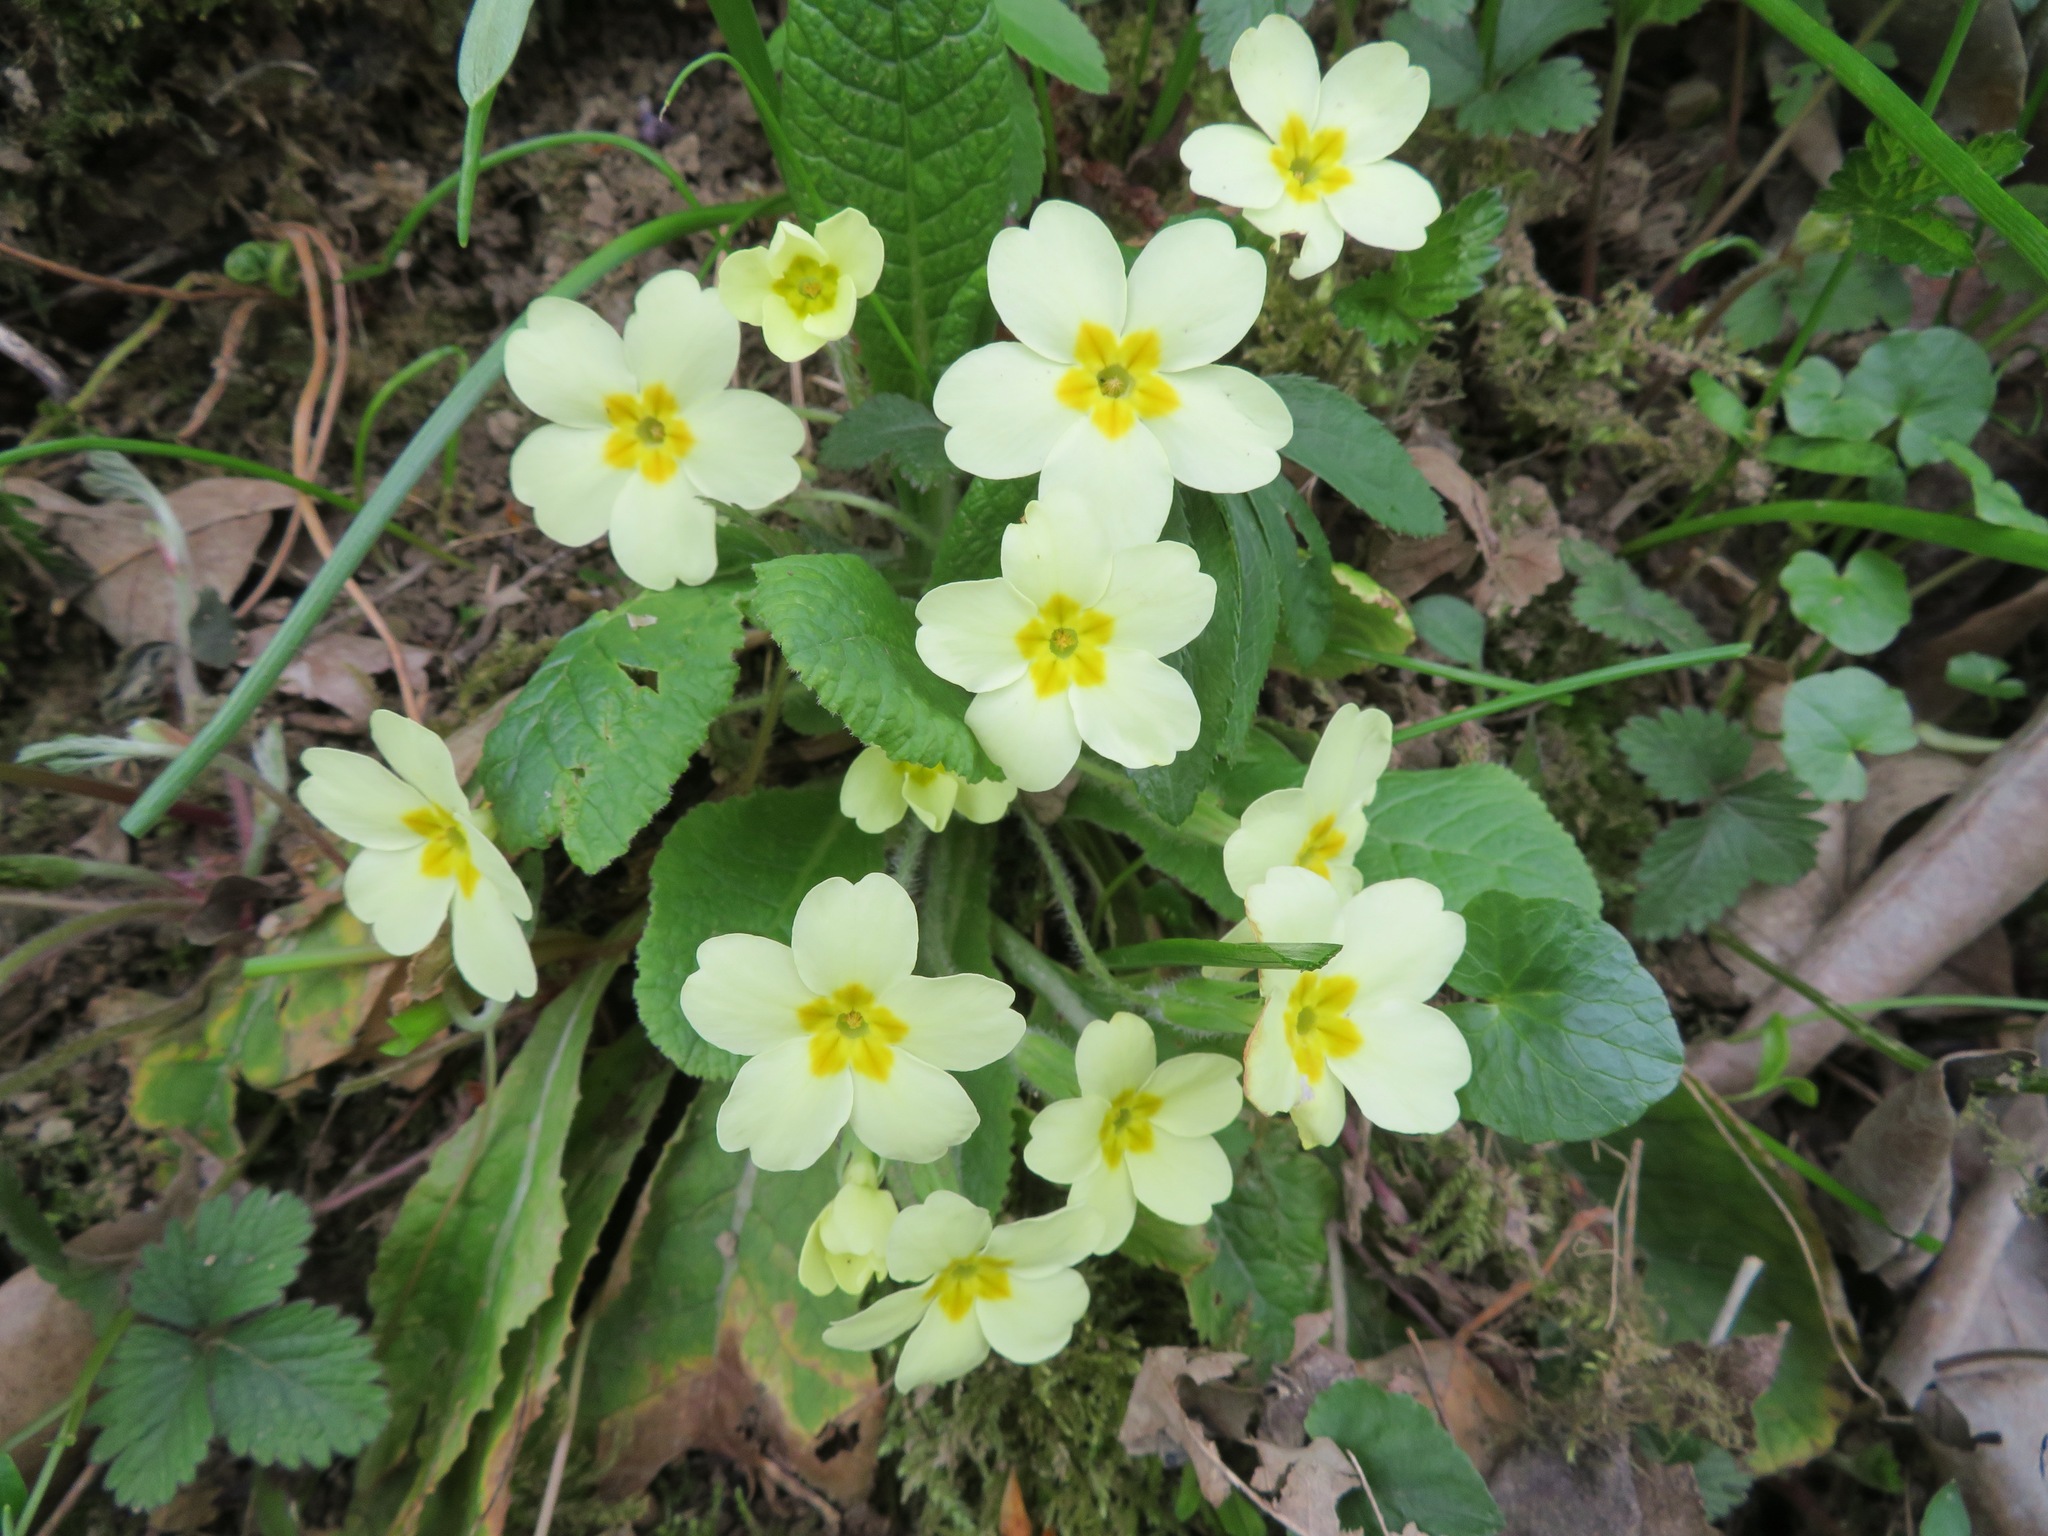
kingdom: Plantae
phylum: Tracheophyta
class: Magnoliopsida
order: Ericales
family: Primulaceae
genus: Primula
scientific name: Primula vulgaris
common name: Primrose
